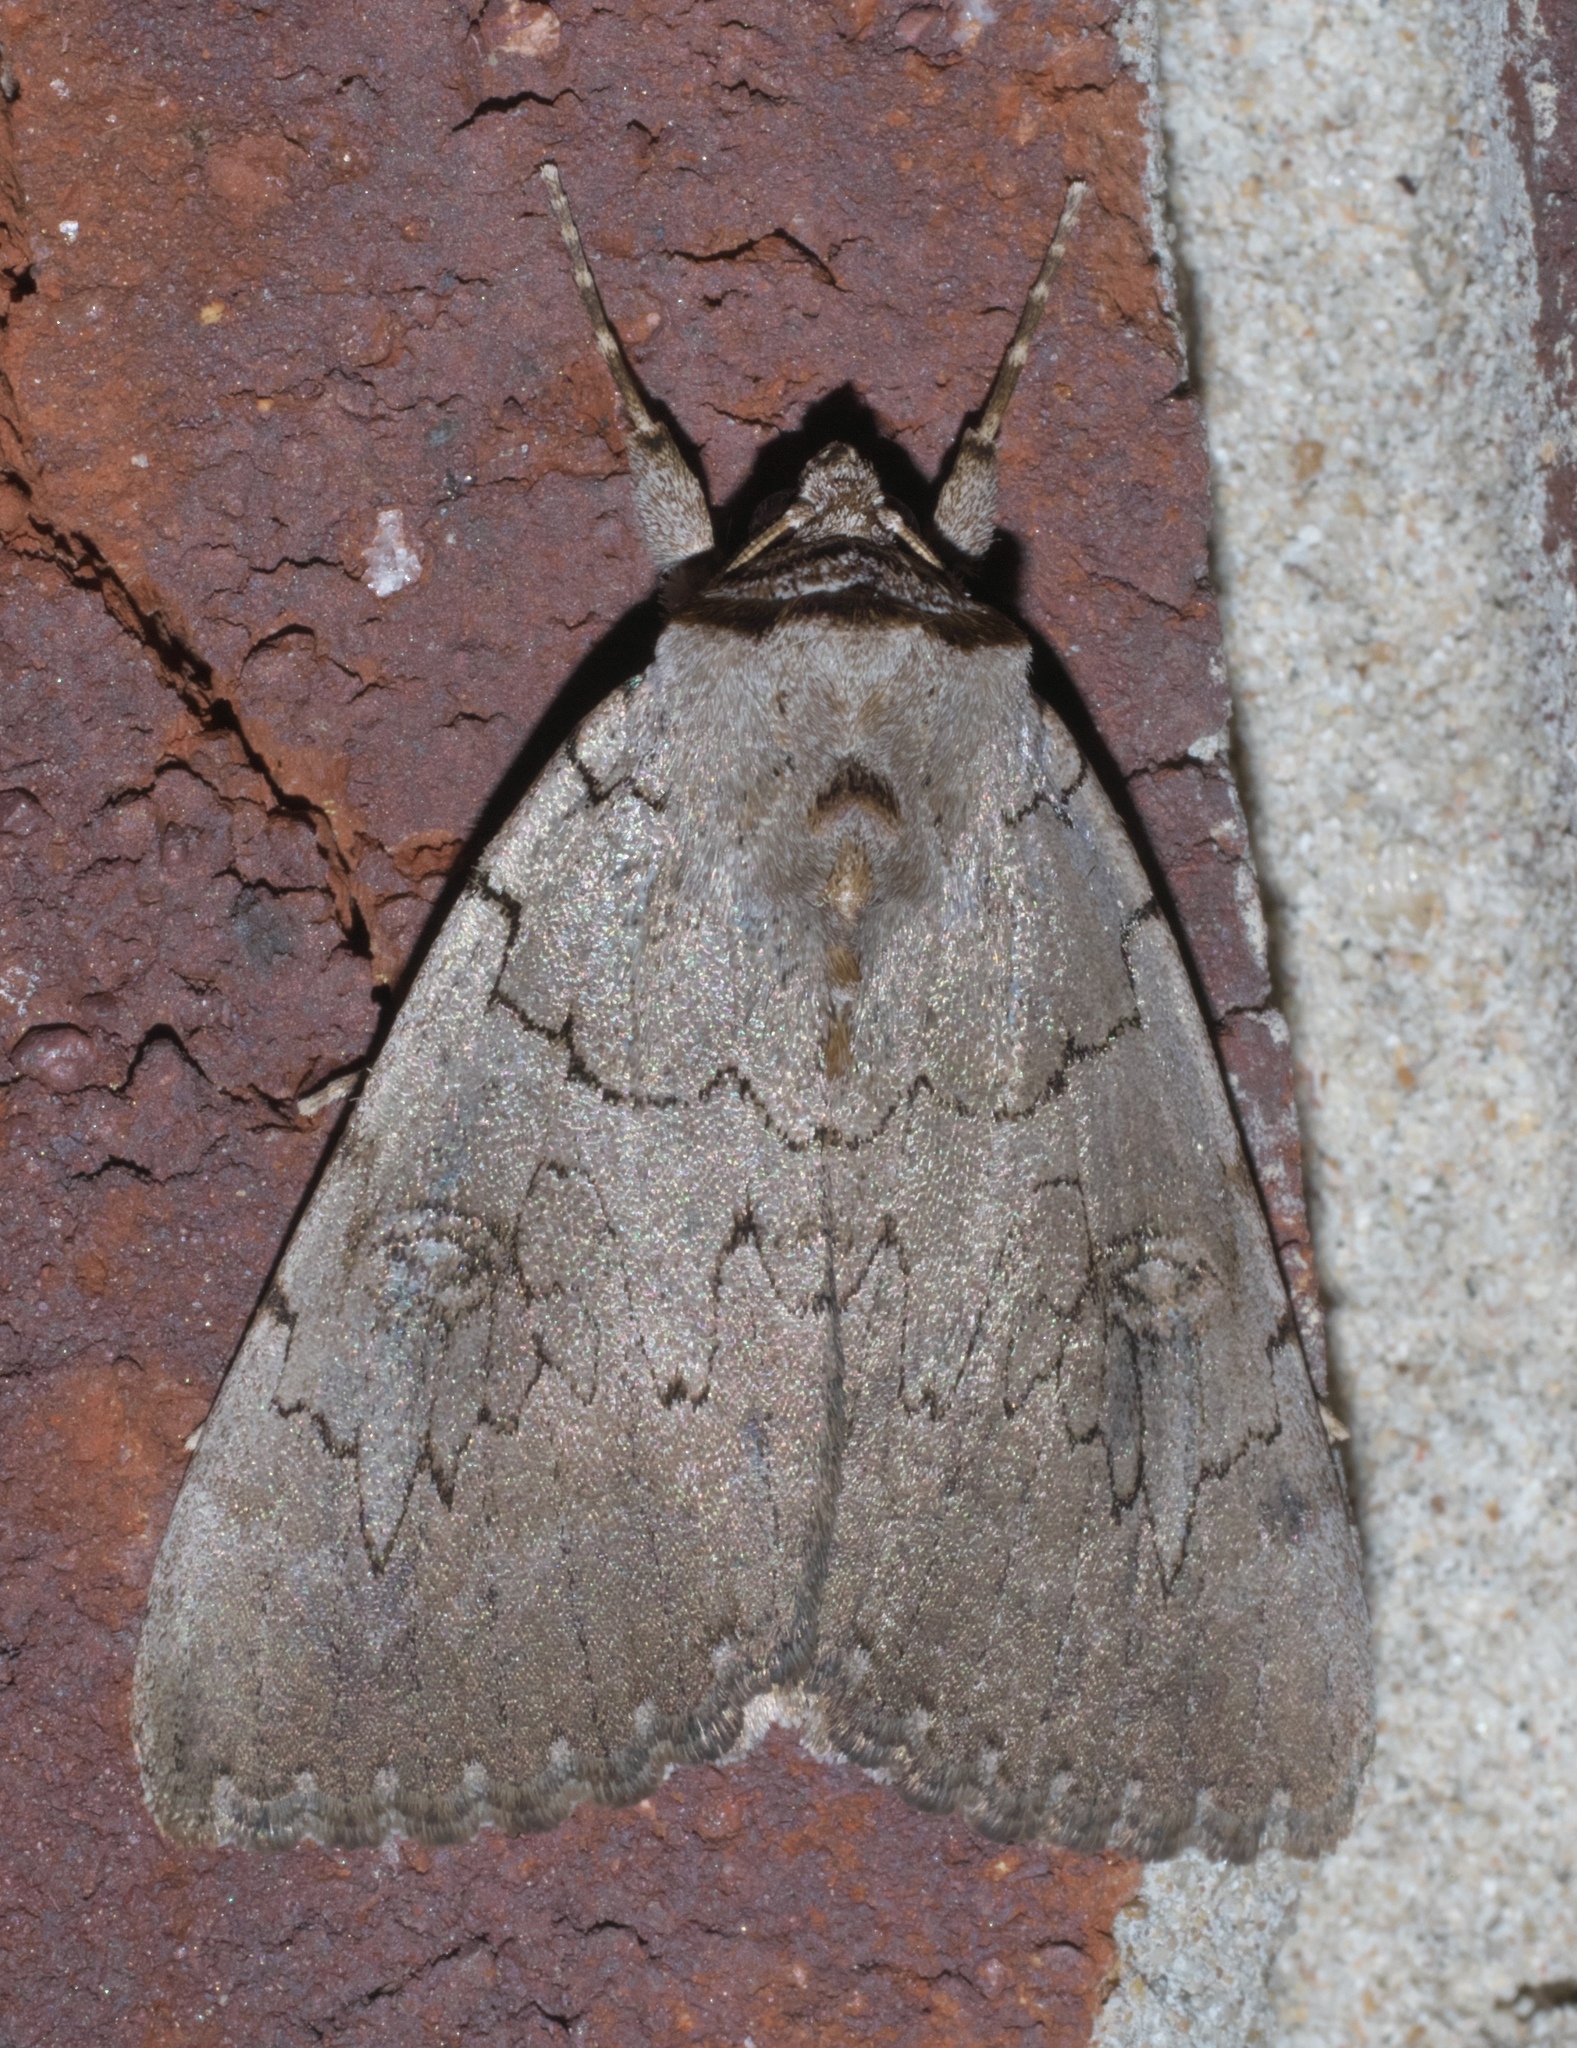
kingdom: Animalia
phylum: Arthropoda
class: Insecta
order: Lepidoptera
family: Erebidae
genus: Catocala
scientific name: Catocala illecta
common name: Magdalen underwing
